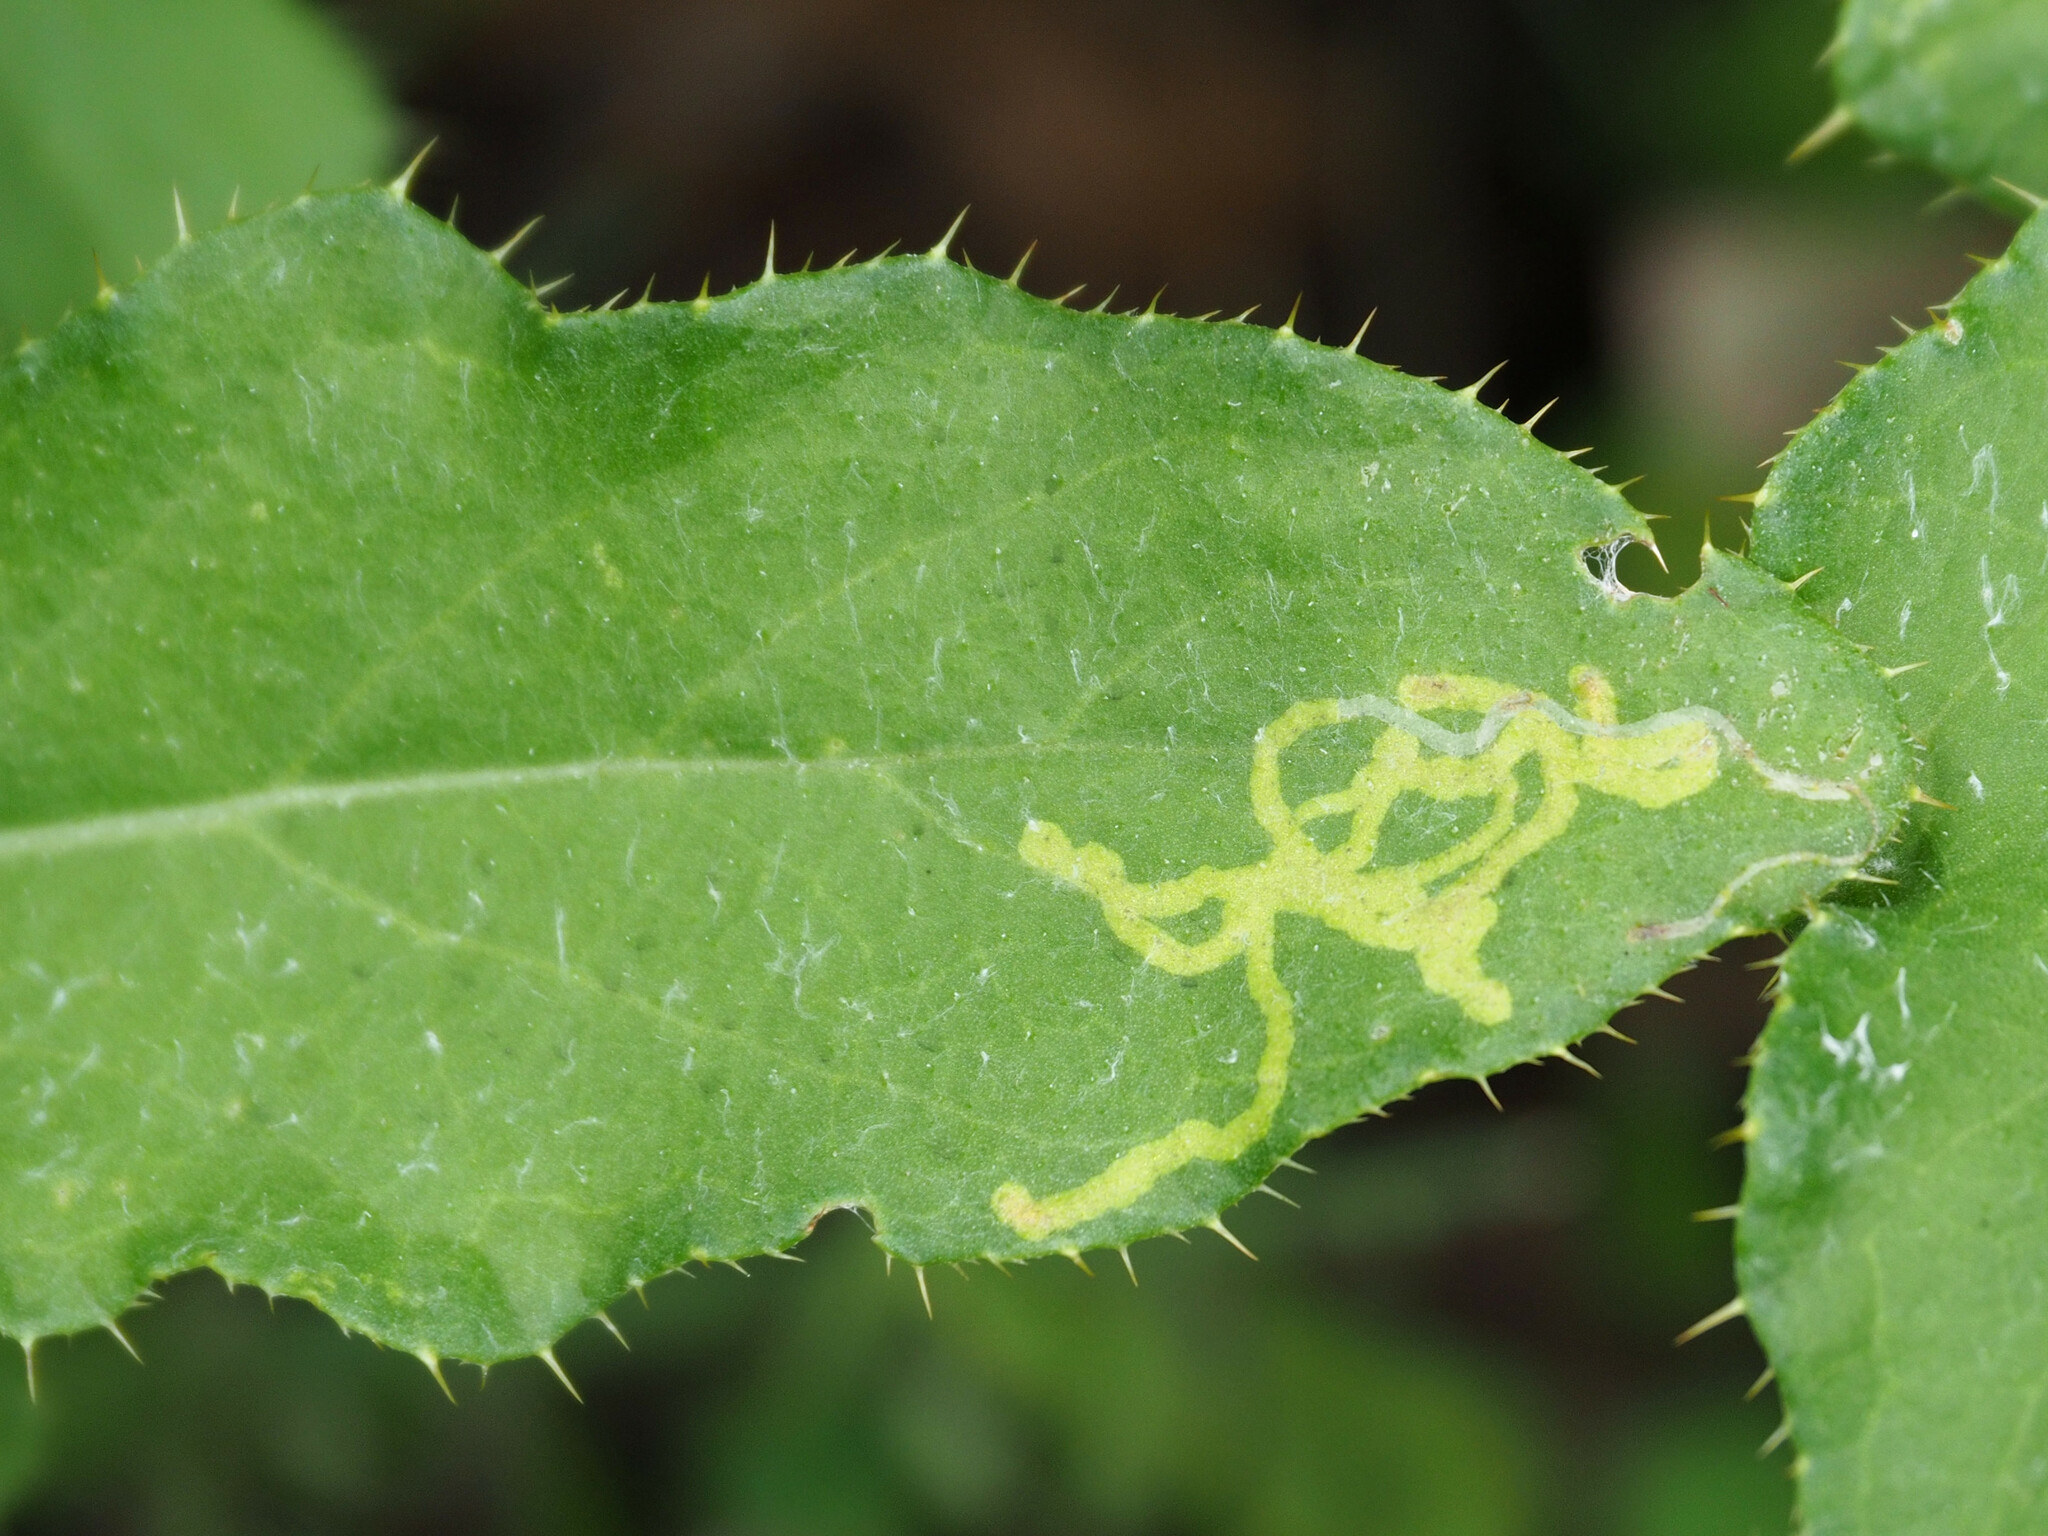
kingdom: Animalia
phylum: Arthropoda
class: Insecta
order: Diptera
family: Agromyzidae
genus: Phytomyza
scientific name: Phytomyza spinaciae
